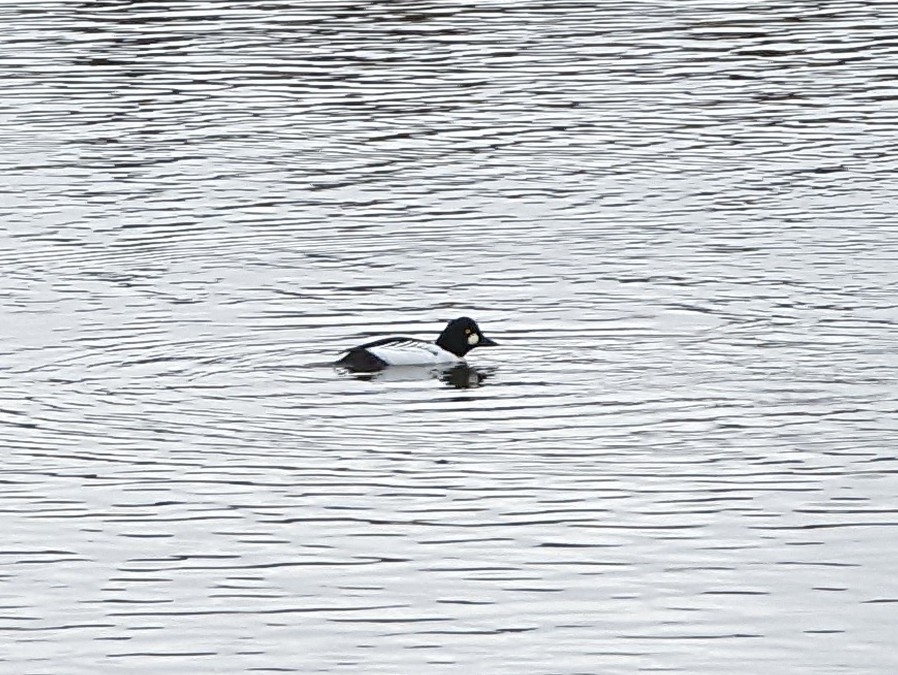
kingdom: Animalia
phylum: Chordata
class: Aves
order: Anseriformes
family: Anatidae
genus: Bucephala
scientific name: Bucephala clangula
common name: Common goldeneye
